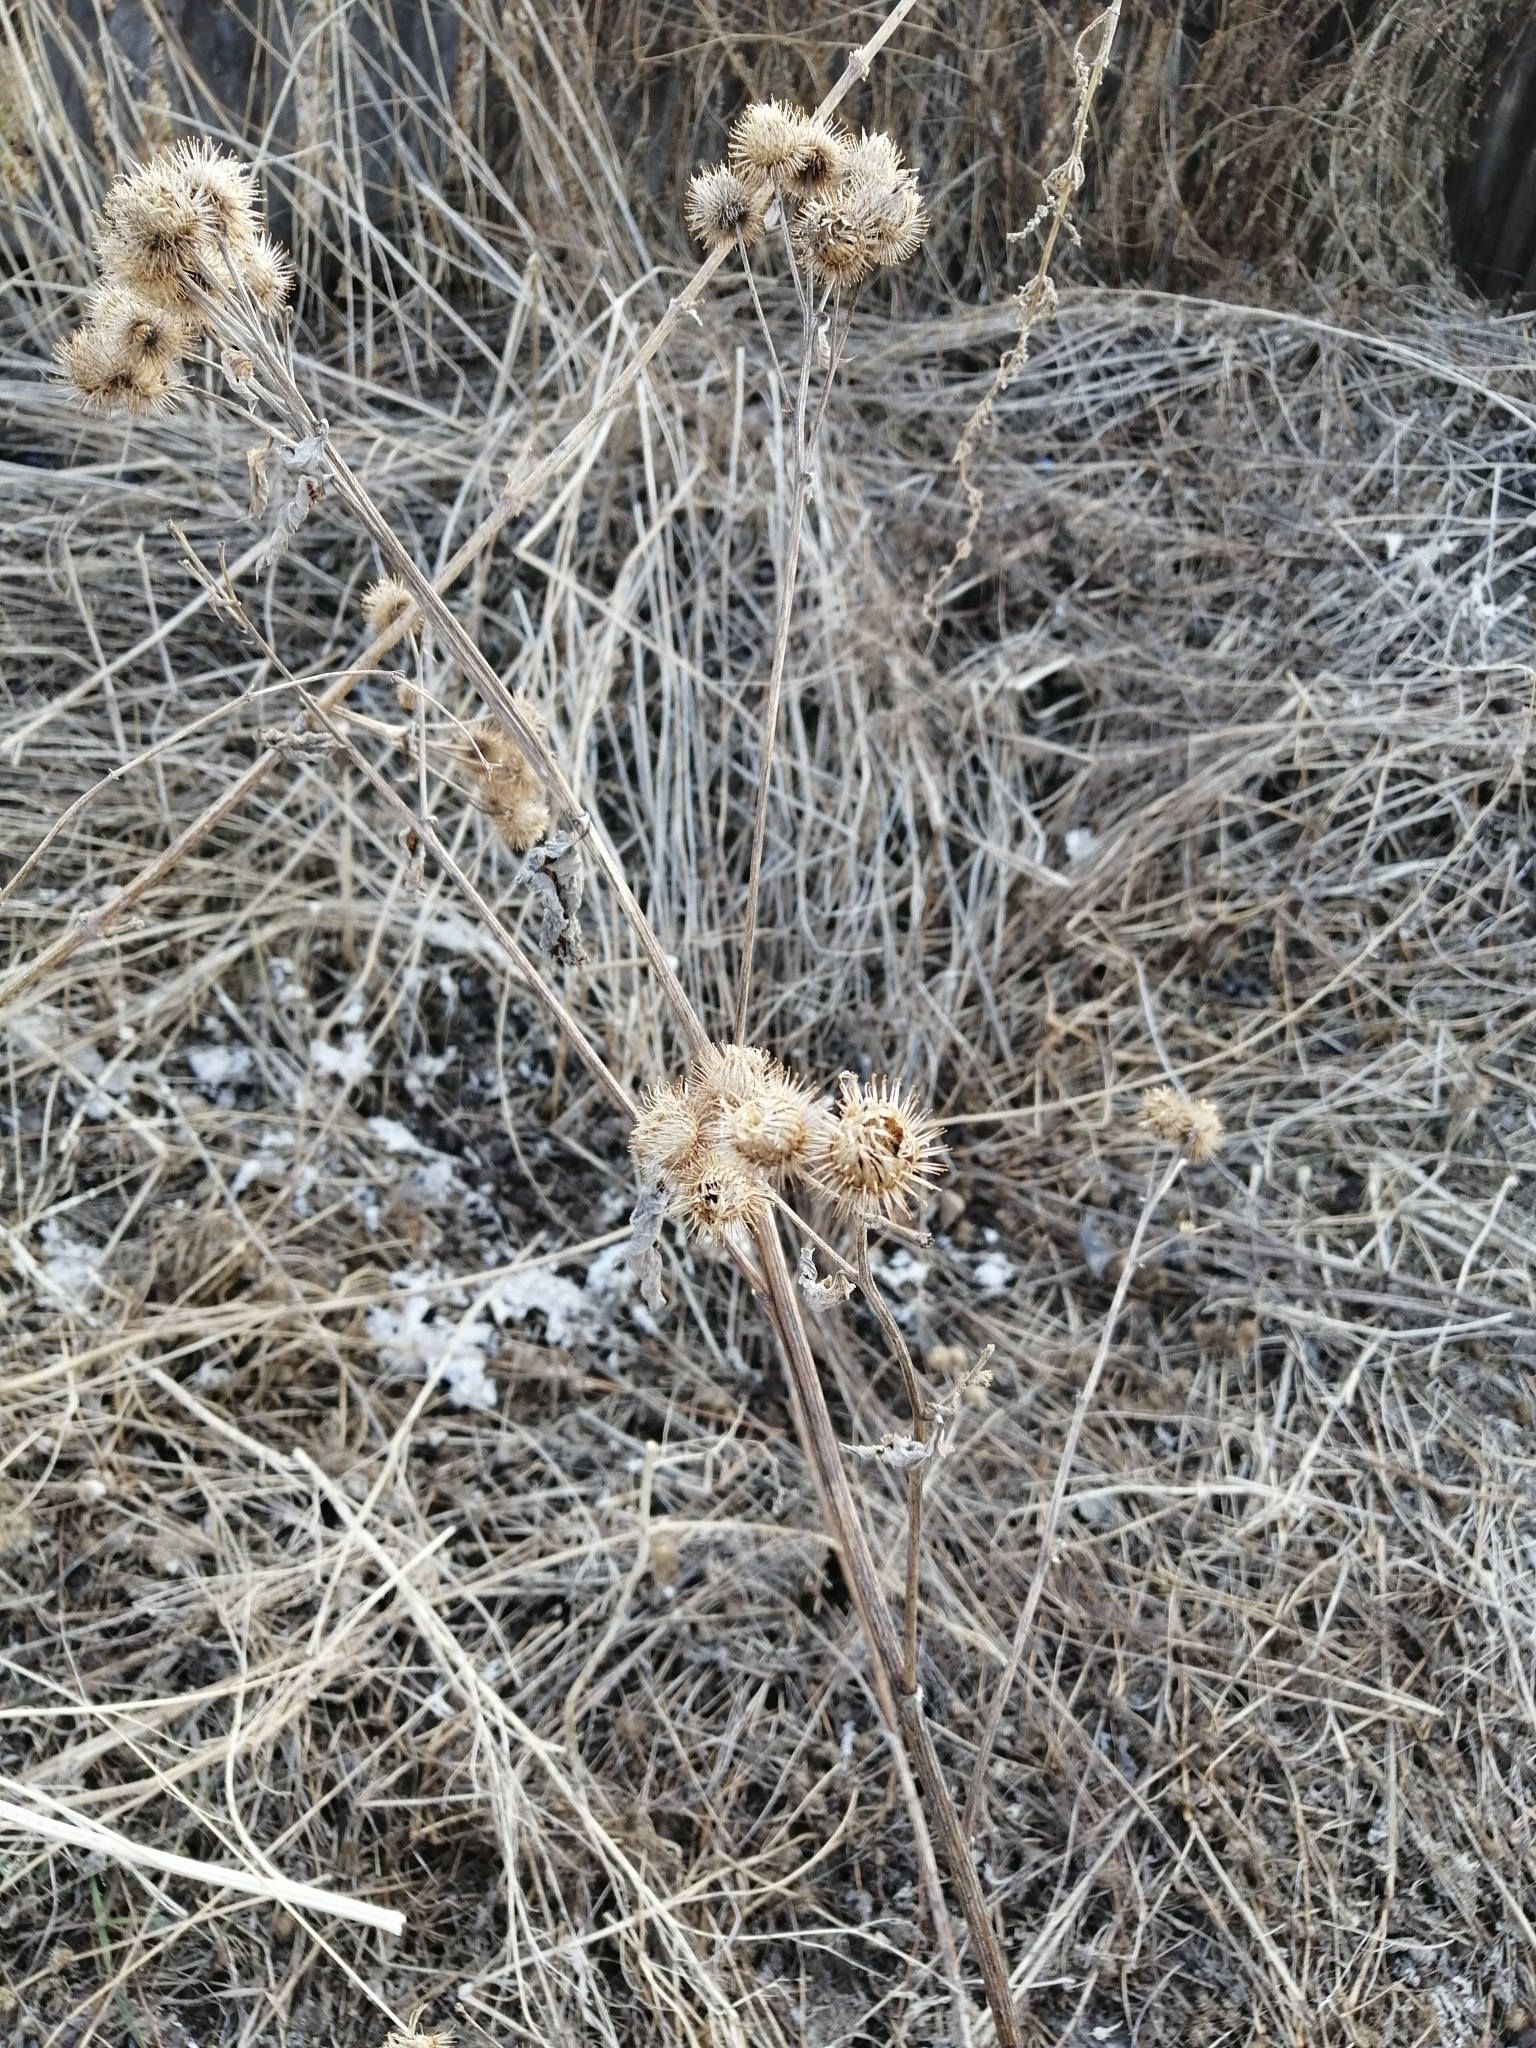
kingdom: Plantae
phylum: Tracheophyta
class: Magnoliopsida
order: Asterales
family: Asteraceae
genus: Arctium
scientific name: Arctium tomentosum
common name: Woolly burdock
